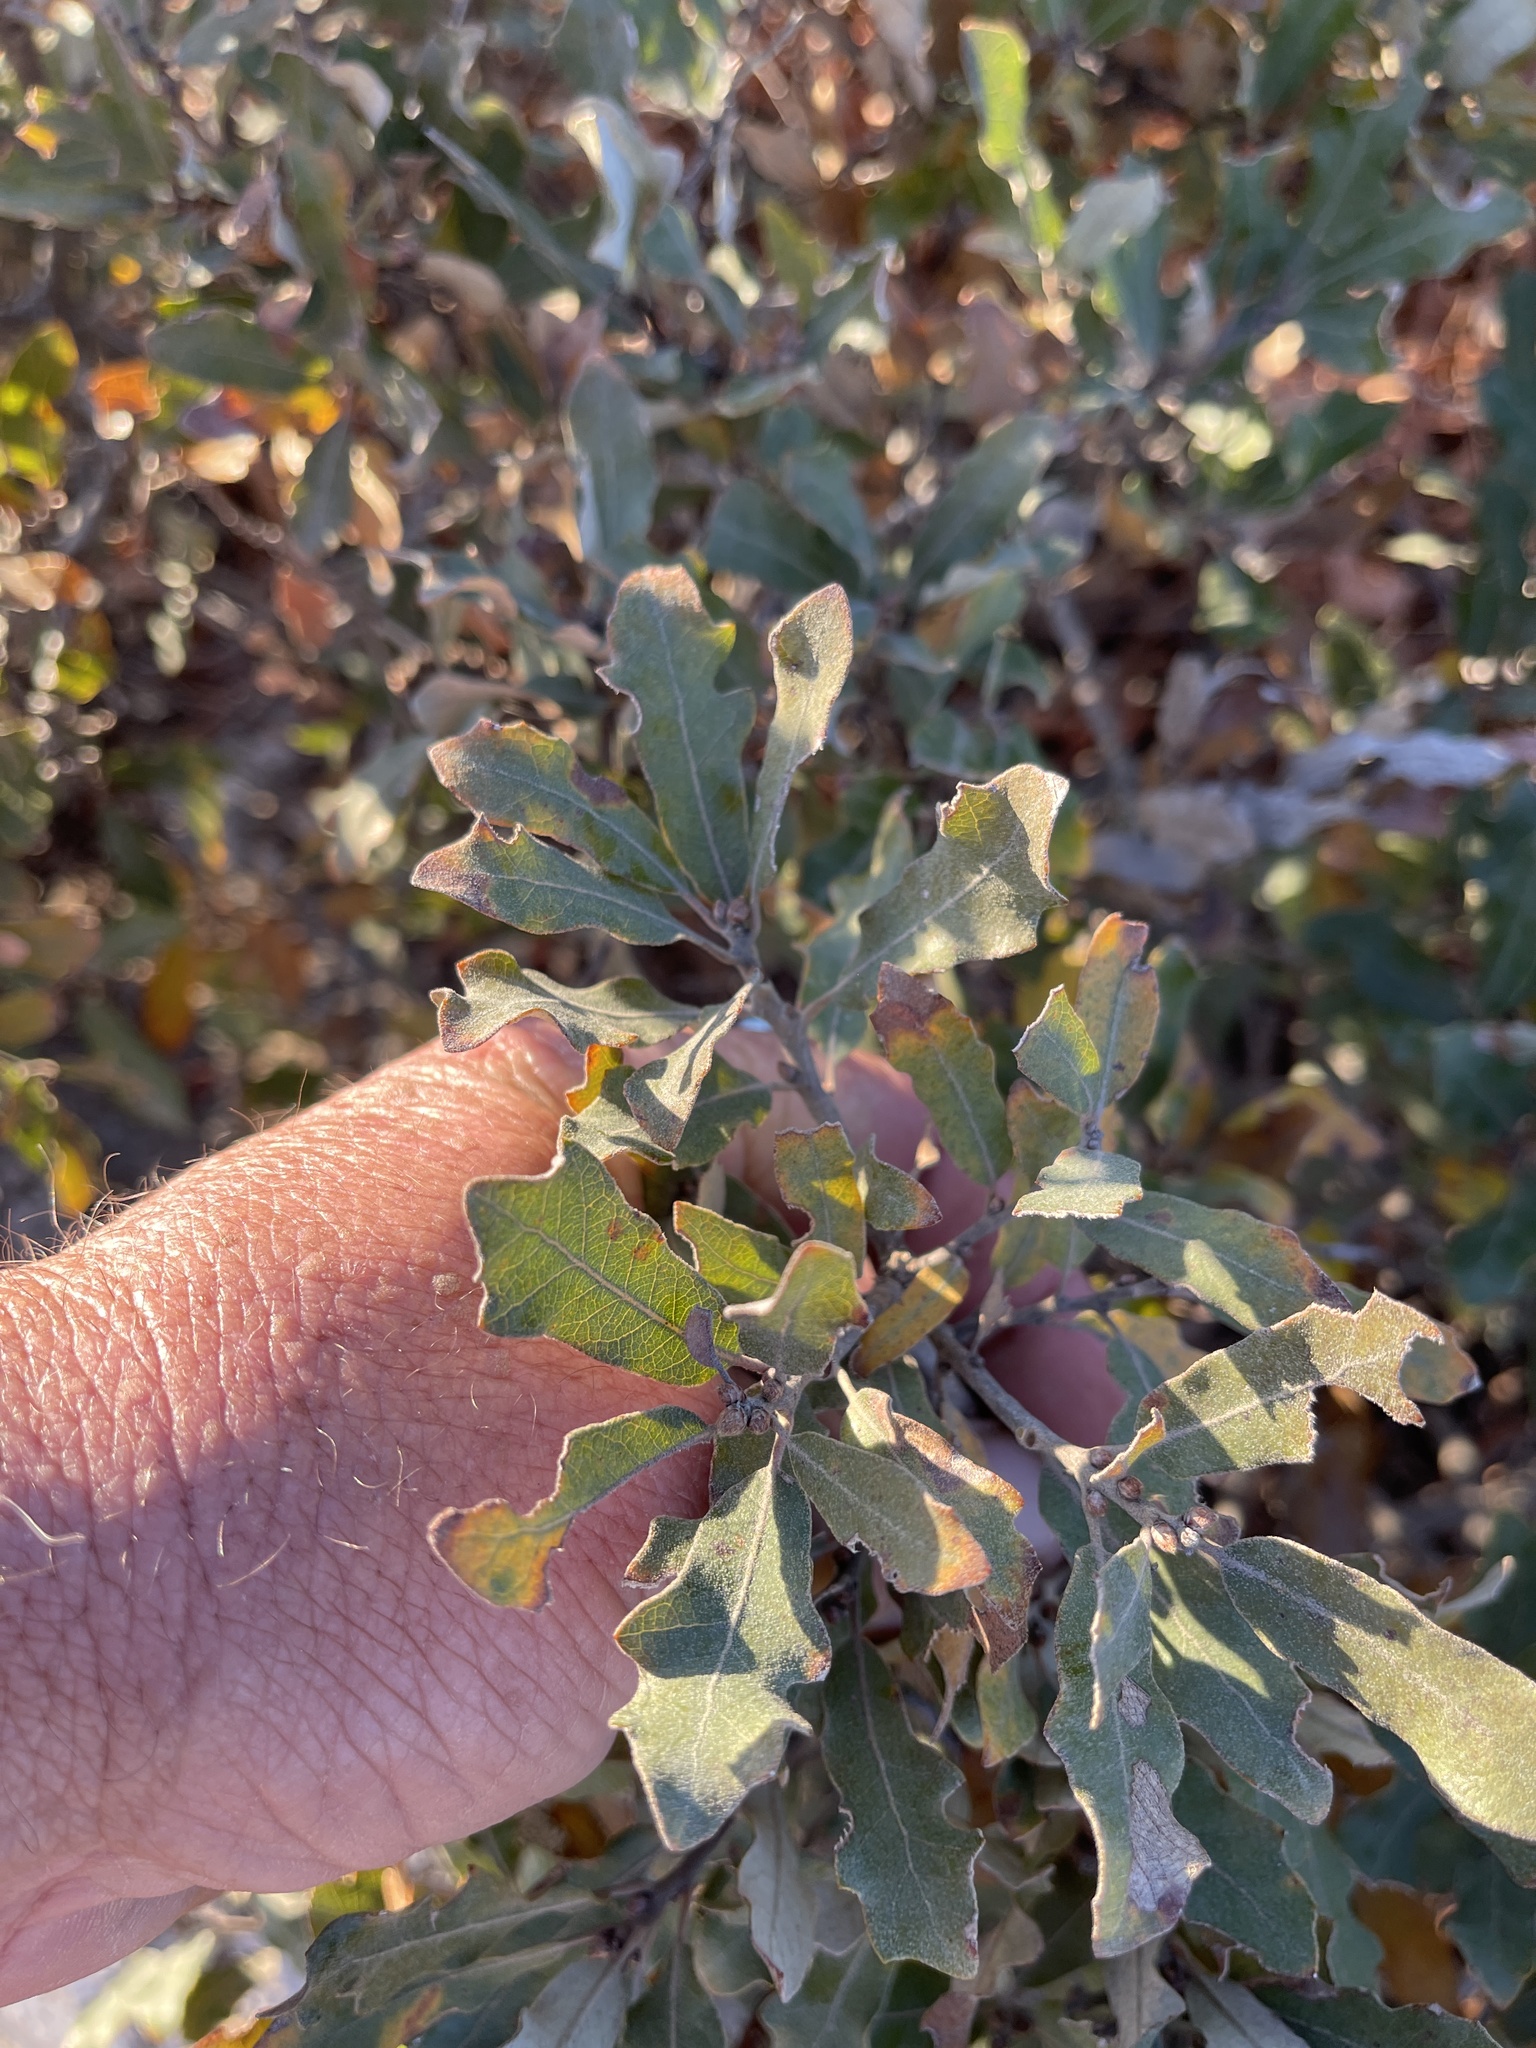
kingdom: Plantae
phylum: Tracheophyta
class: Magnoliopsida
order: Fagales
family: Fagaceae
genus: Quercus
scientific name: Quercus havardii
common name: Shinnery oak
